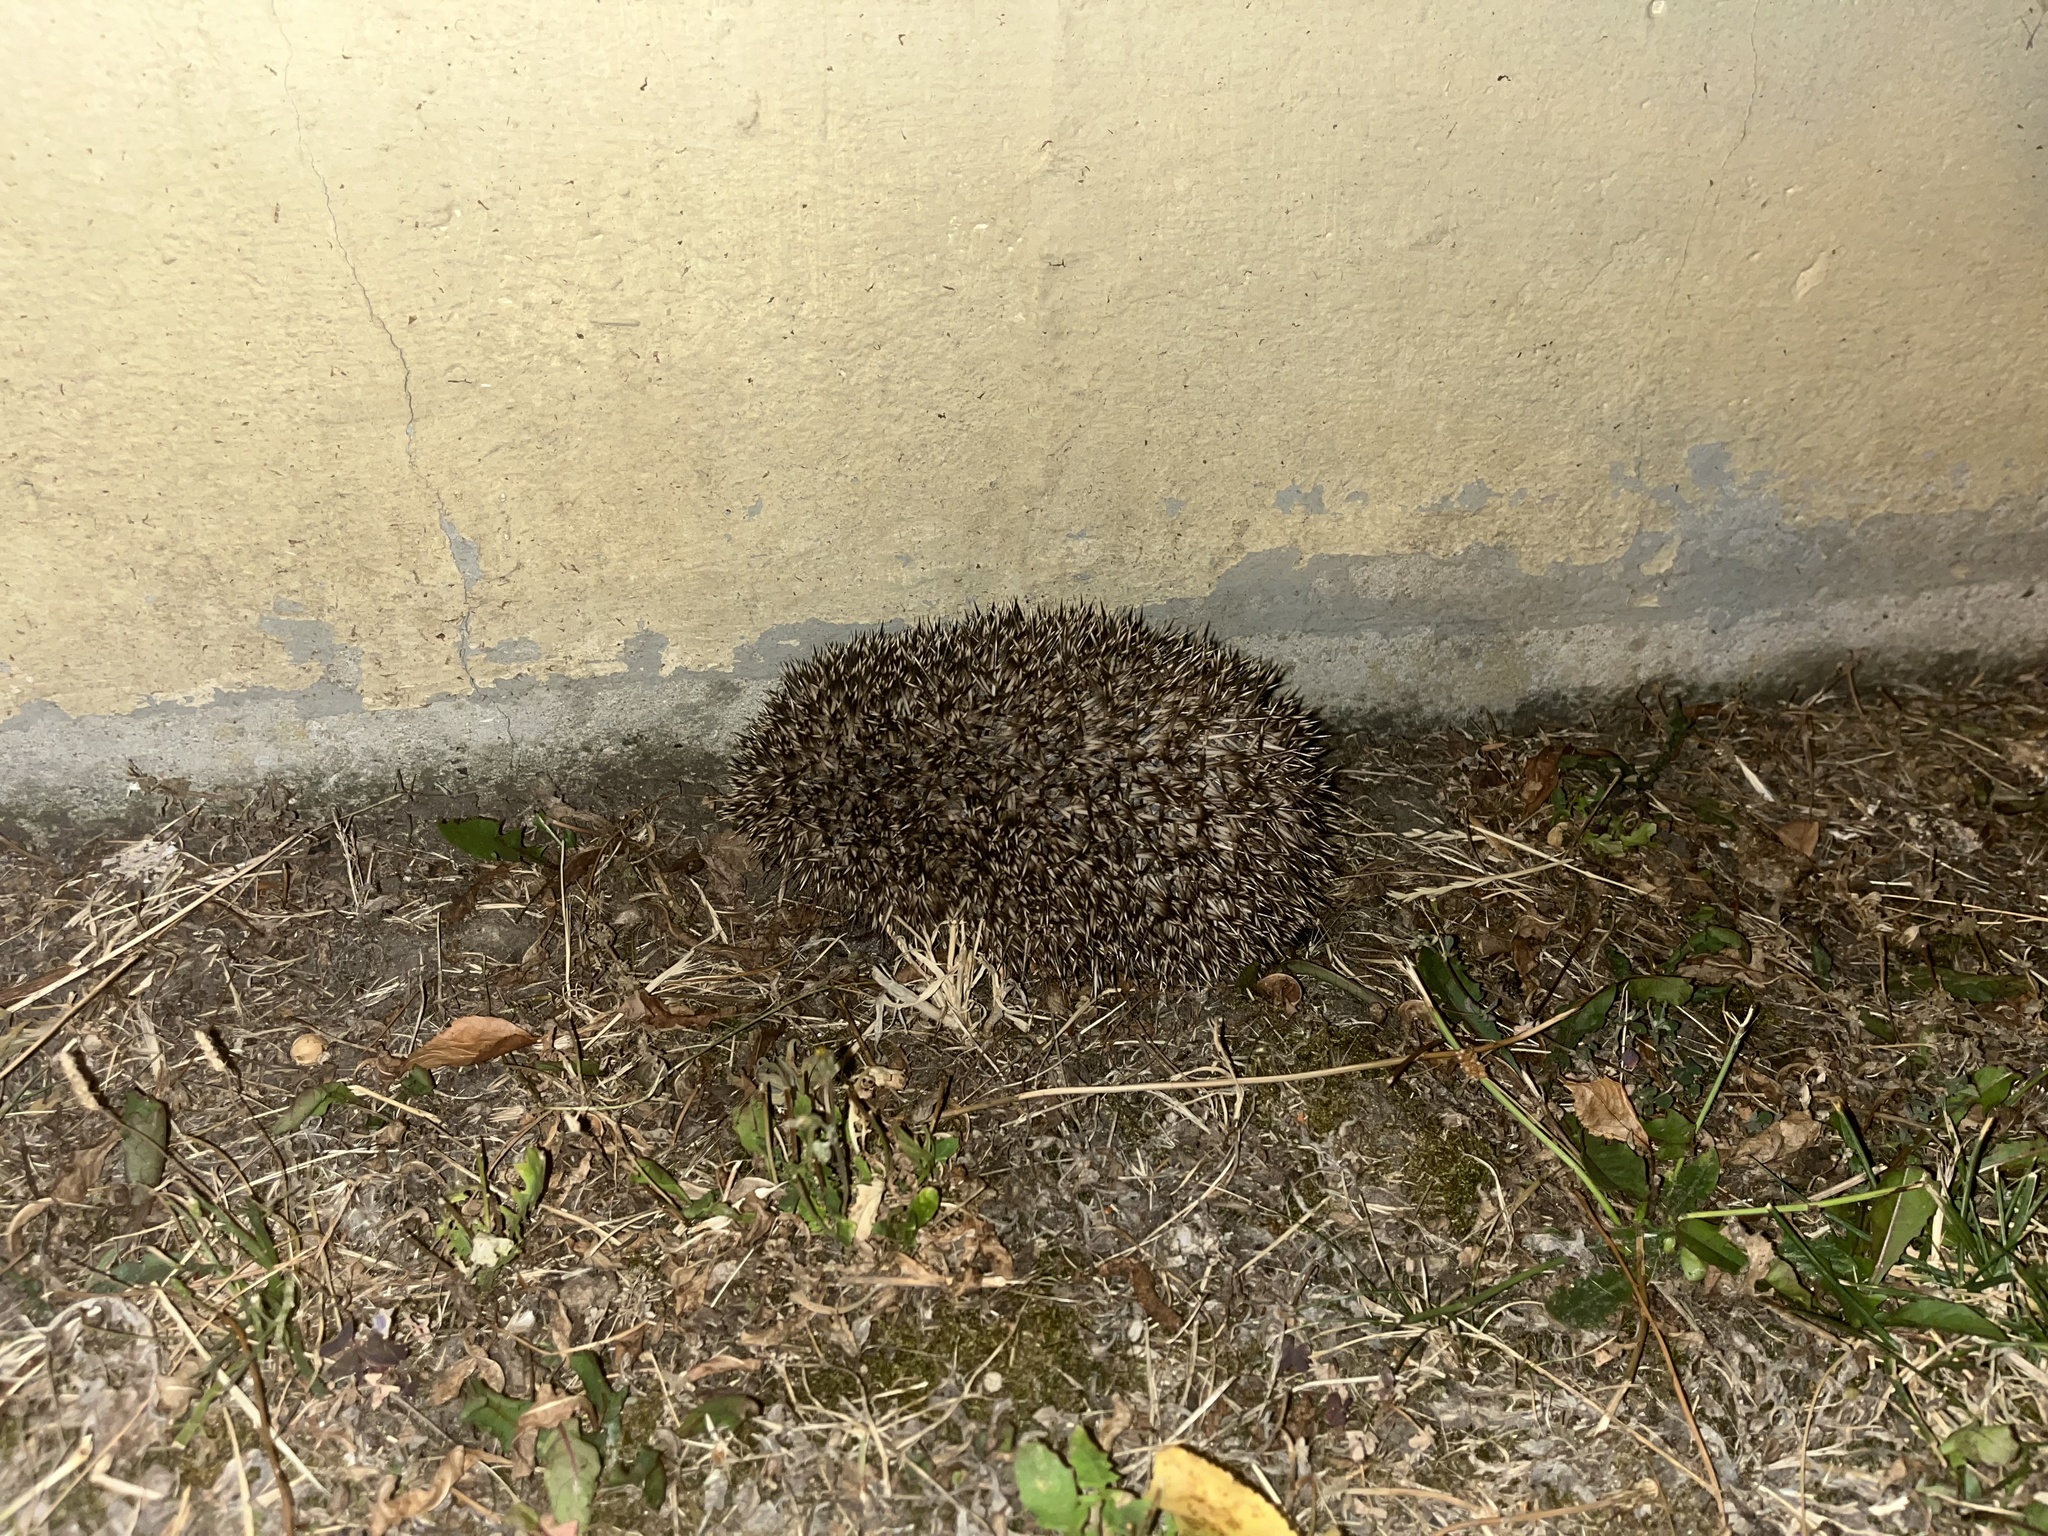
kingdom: Animalia
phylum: Chordata
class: Mammalia
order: Erinaceomorpha
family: Erinaceidae
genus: Erinaceus
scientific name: Erinaceus europaeus
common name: West european hedgehog
